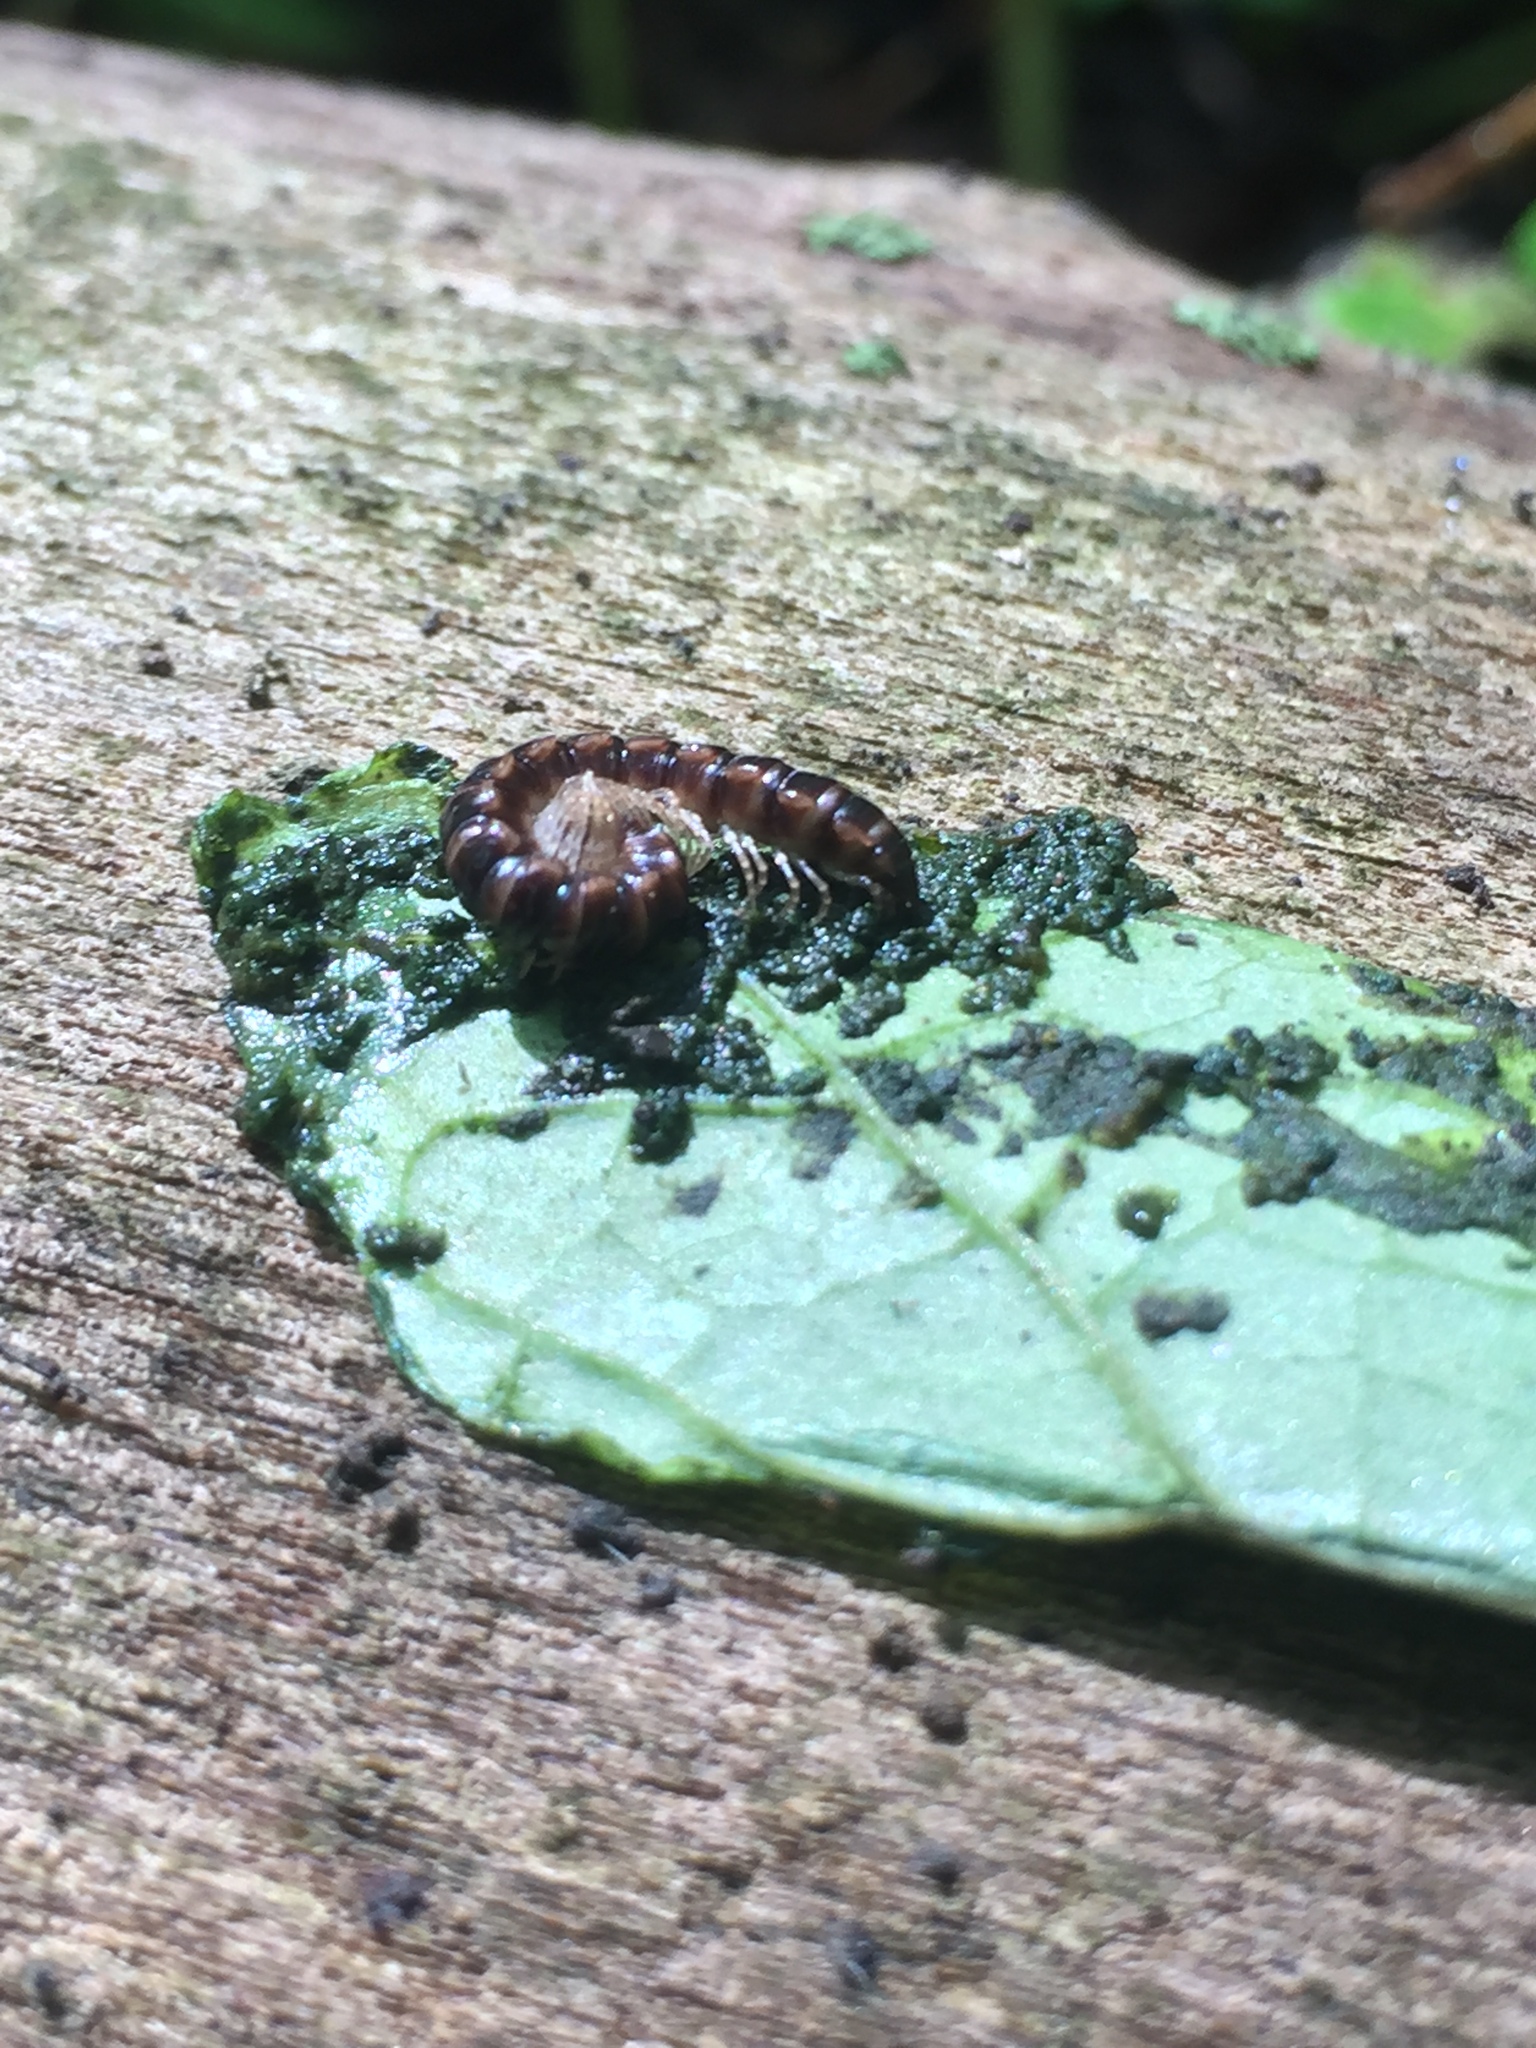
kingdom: Animalia
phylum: Arthropoda
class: Diplopoda
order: Polydesmida
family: Paradoxosomatidae
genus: Oxidus
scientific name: Oxidus gracilis
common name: Greenhouse millipede
